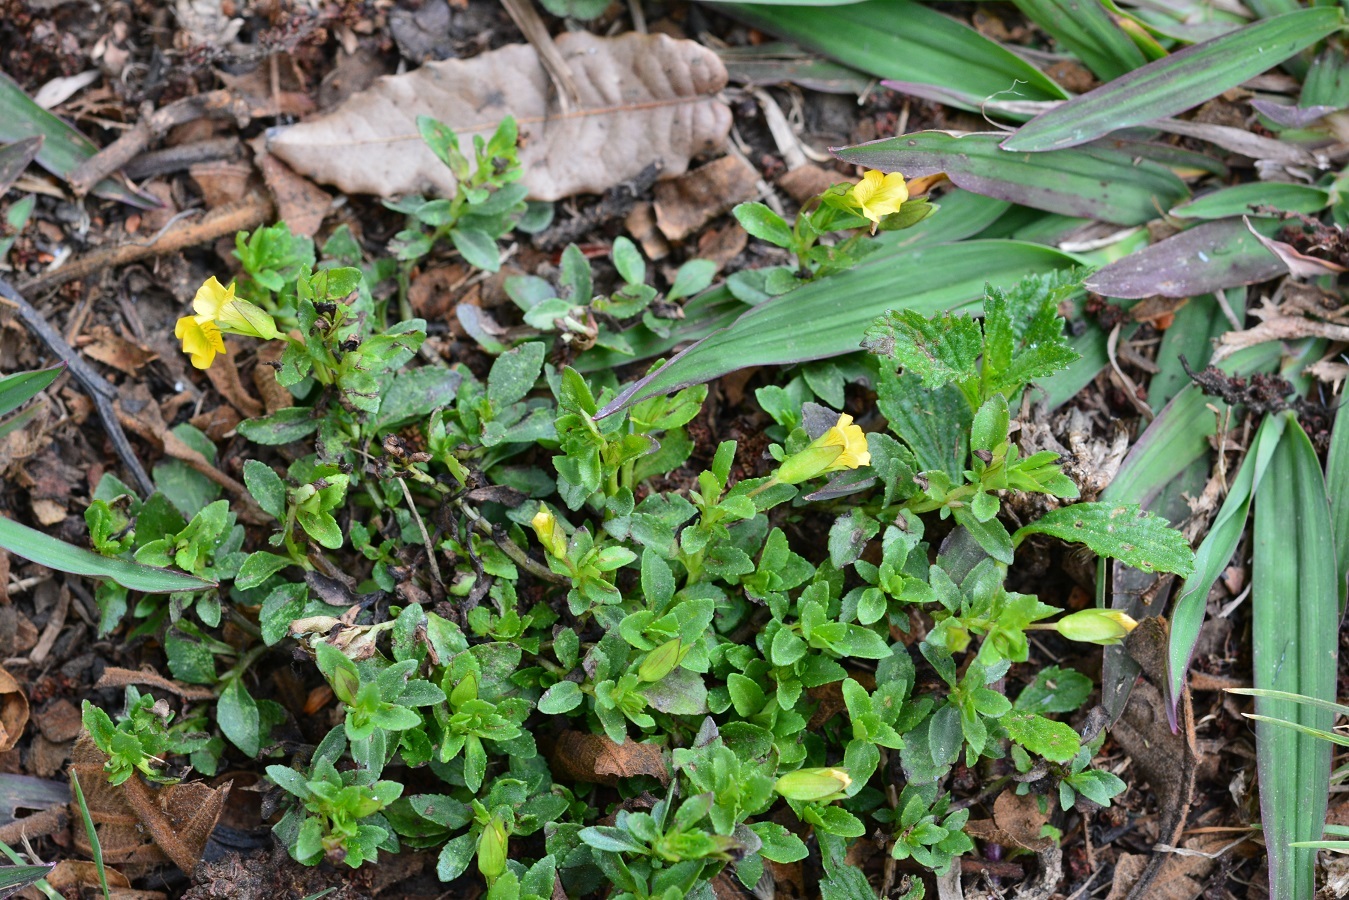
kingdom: Plantae
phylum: Tracheophyta
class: Magnoliopsida
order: Lamiales
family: Plantaginaceae
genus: Mecardonia
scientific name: Mecardonia procumbens
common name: Baby jump-up
